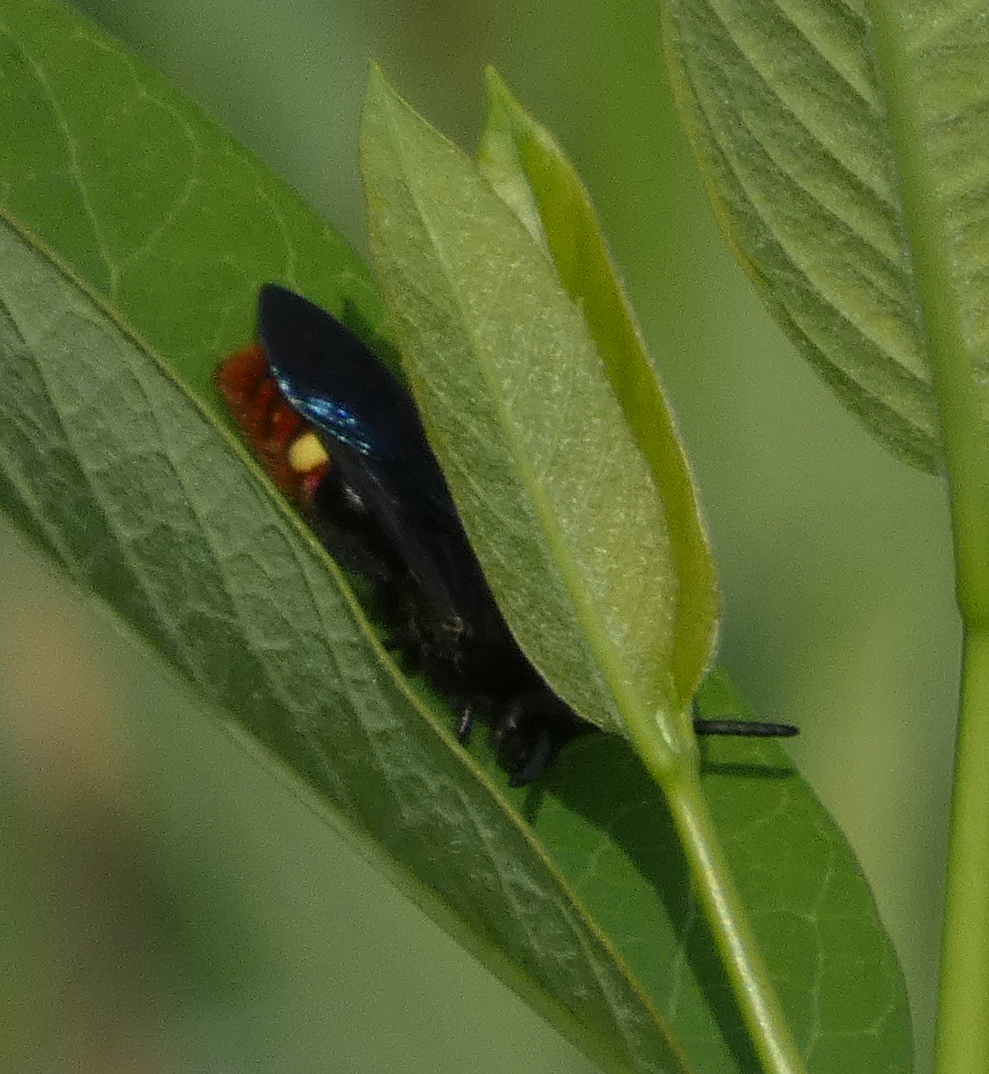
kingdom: Animalia
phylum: Arthropoda
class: Insecta
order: Hymenoptera
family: Scoliidae
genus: Scolia
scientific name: Scolia dubia
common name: Blue-winged scoliid wasp
